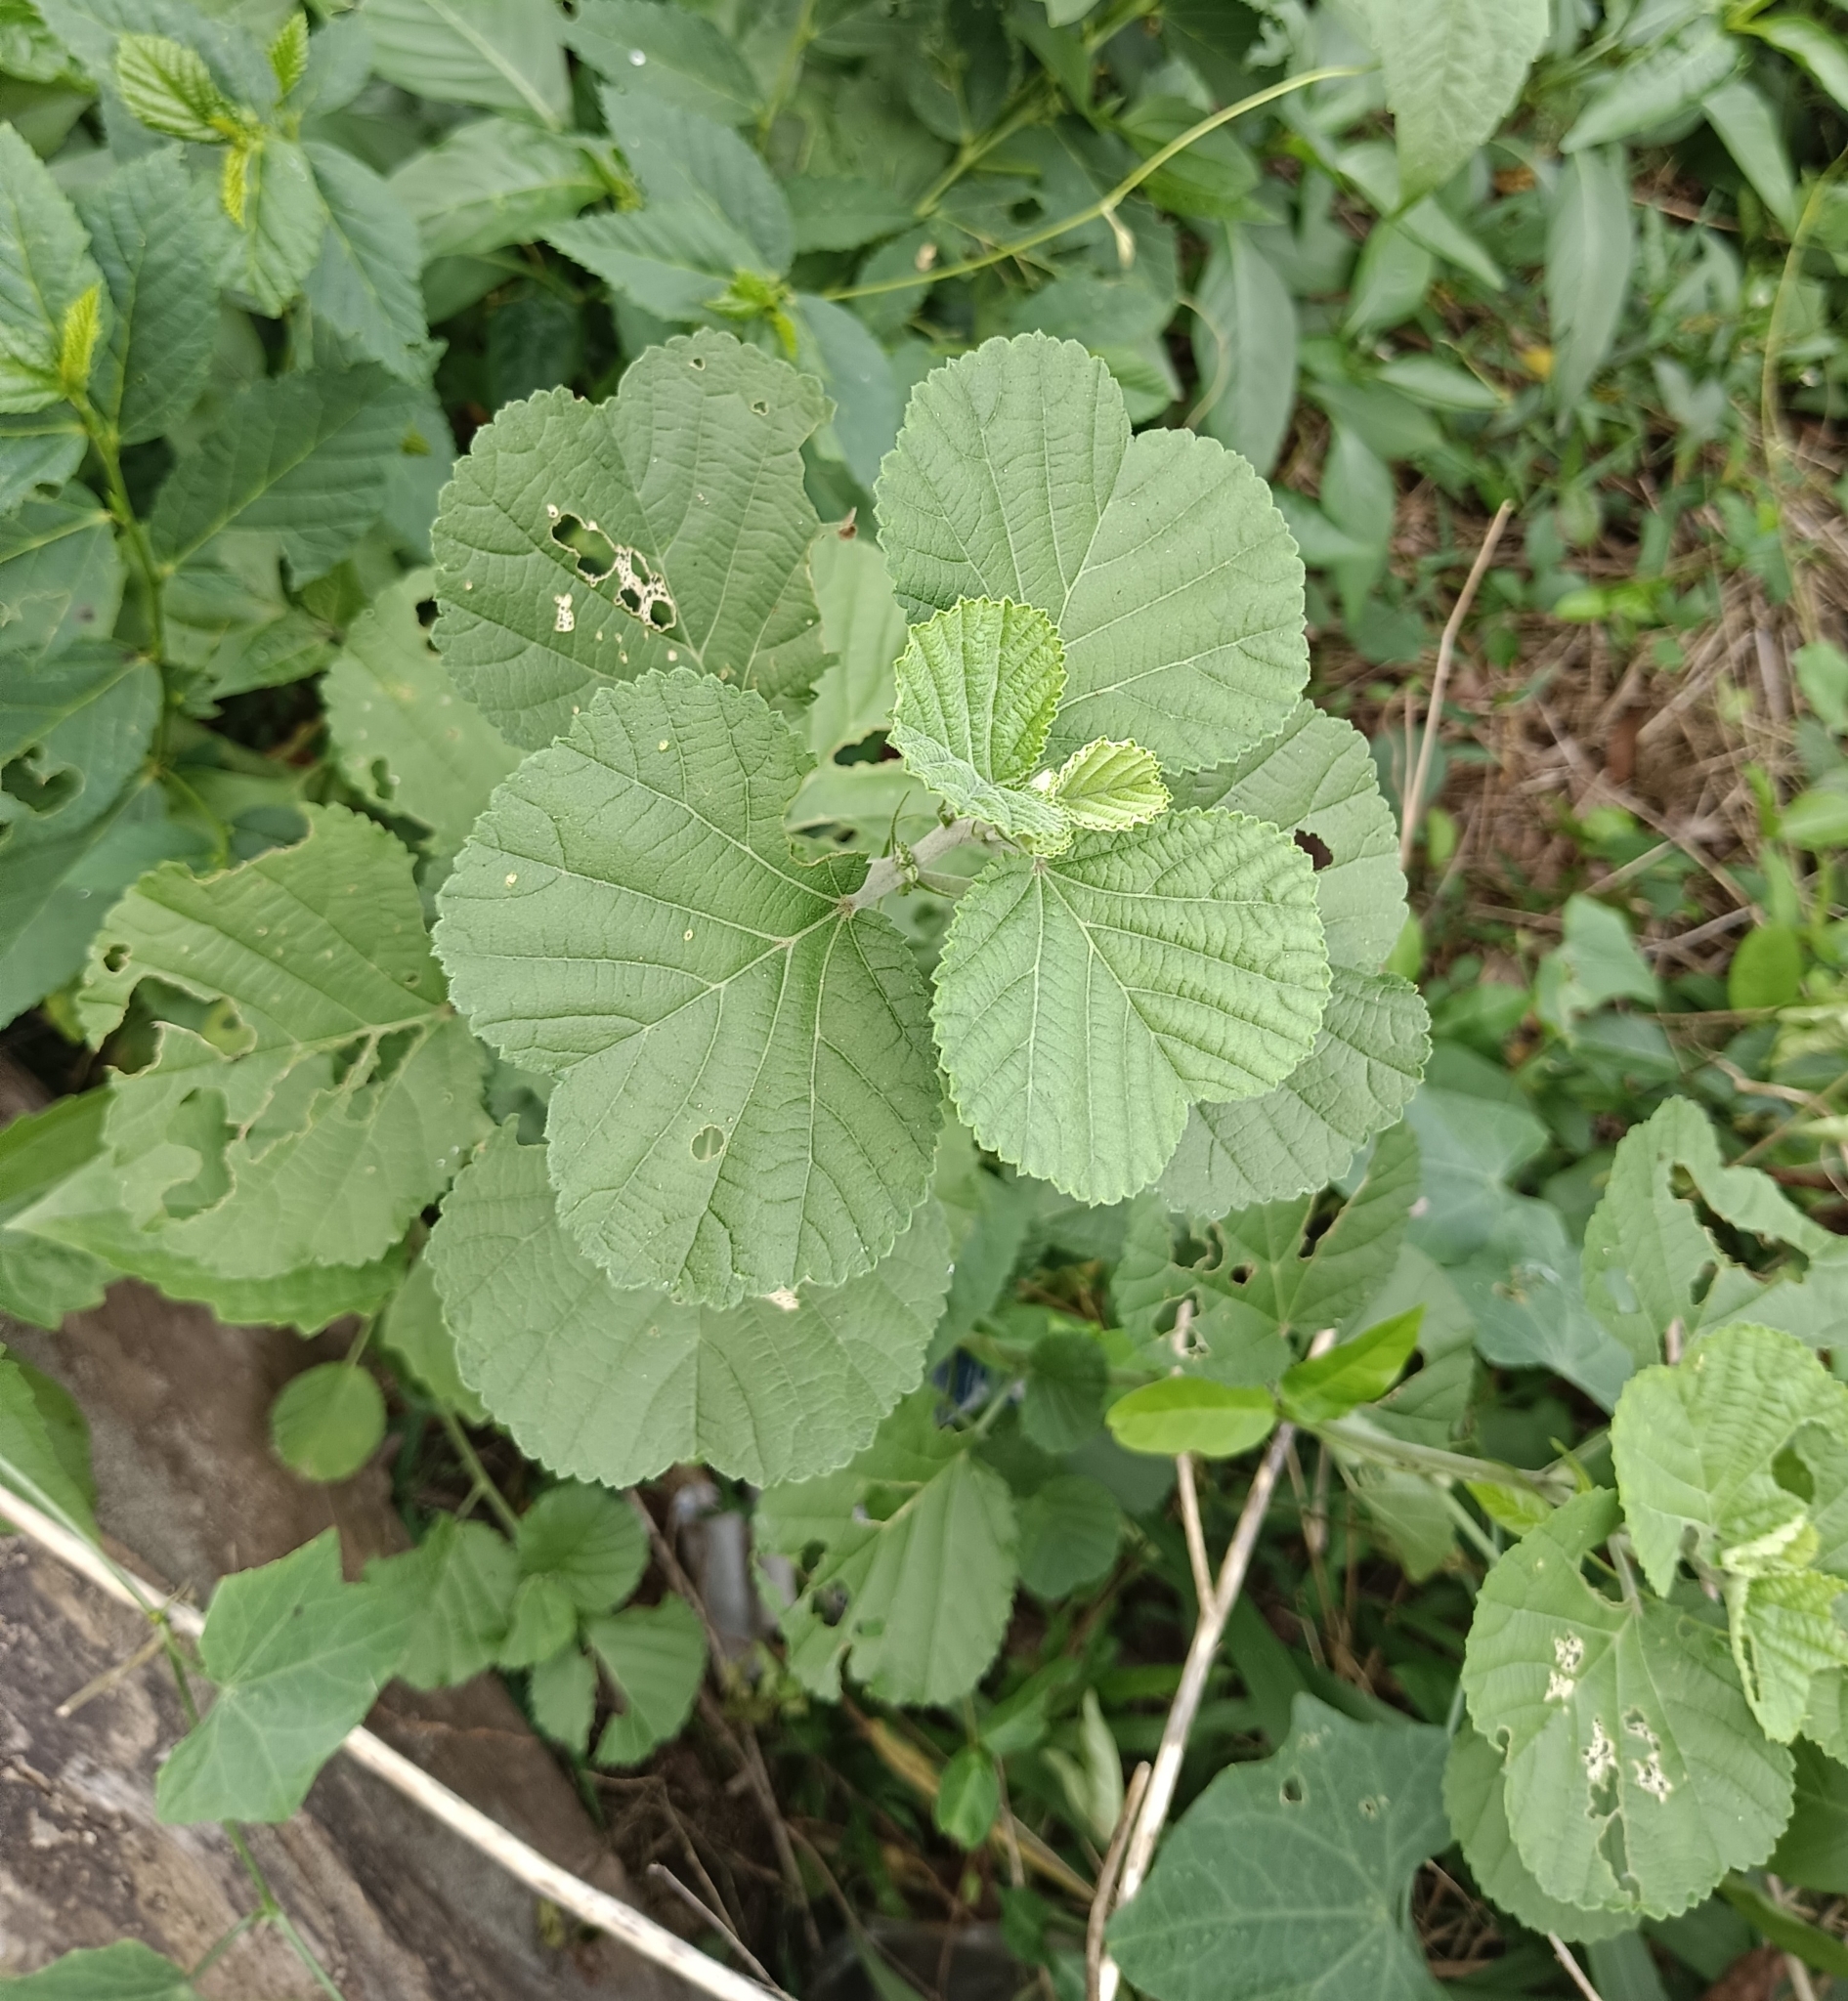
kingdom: Plantae
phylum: Tracheophyta
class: Magnoliopsida
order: Malvales
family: Malvaceae
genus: Sida
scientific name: Sida cordifolia
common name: Ilima
